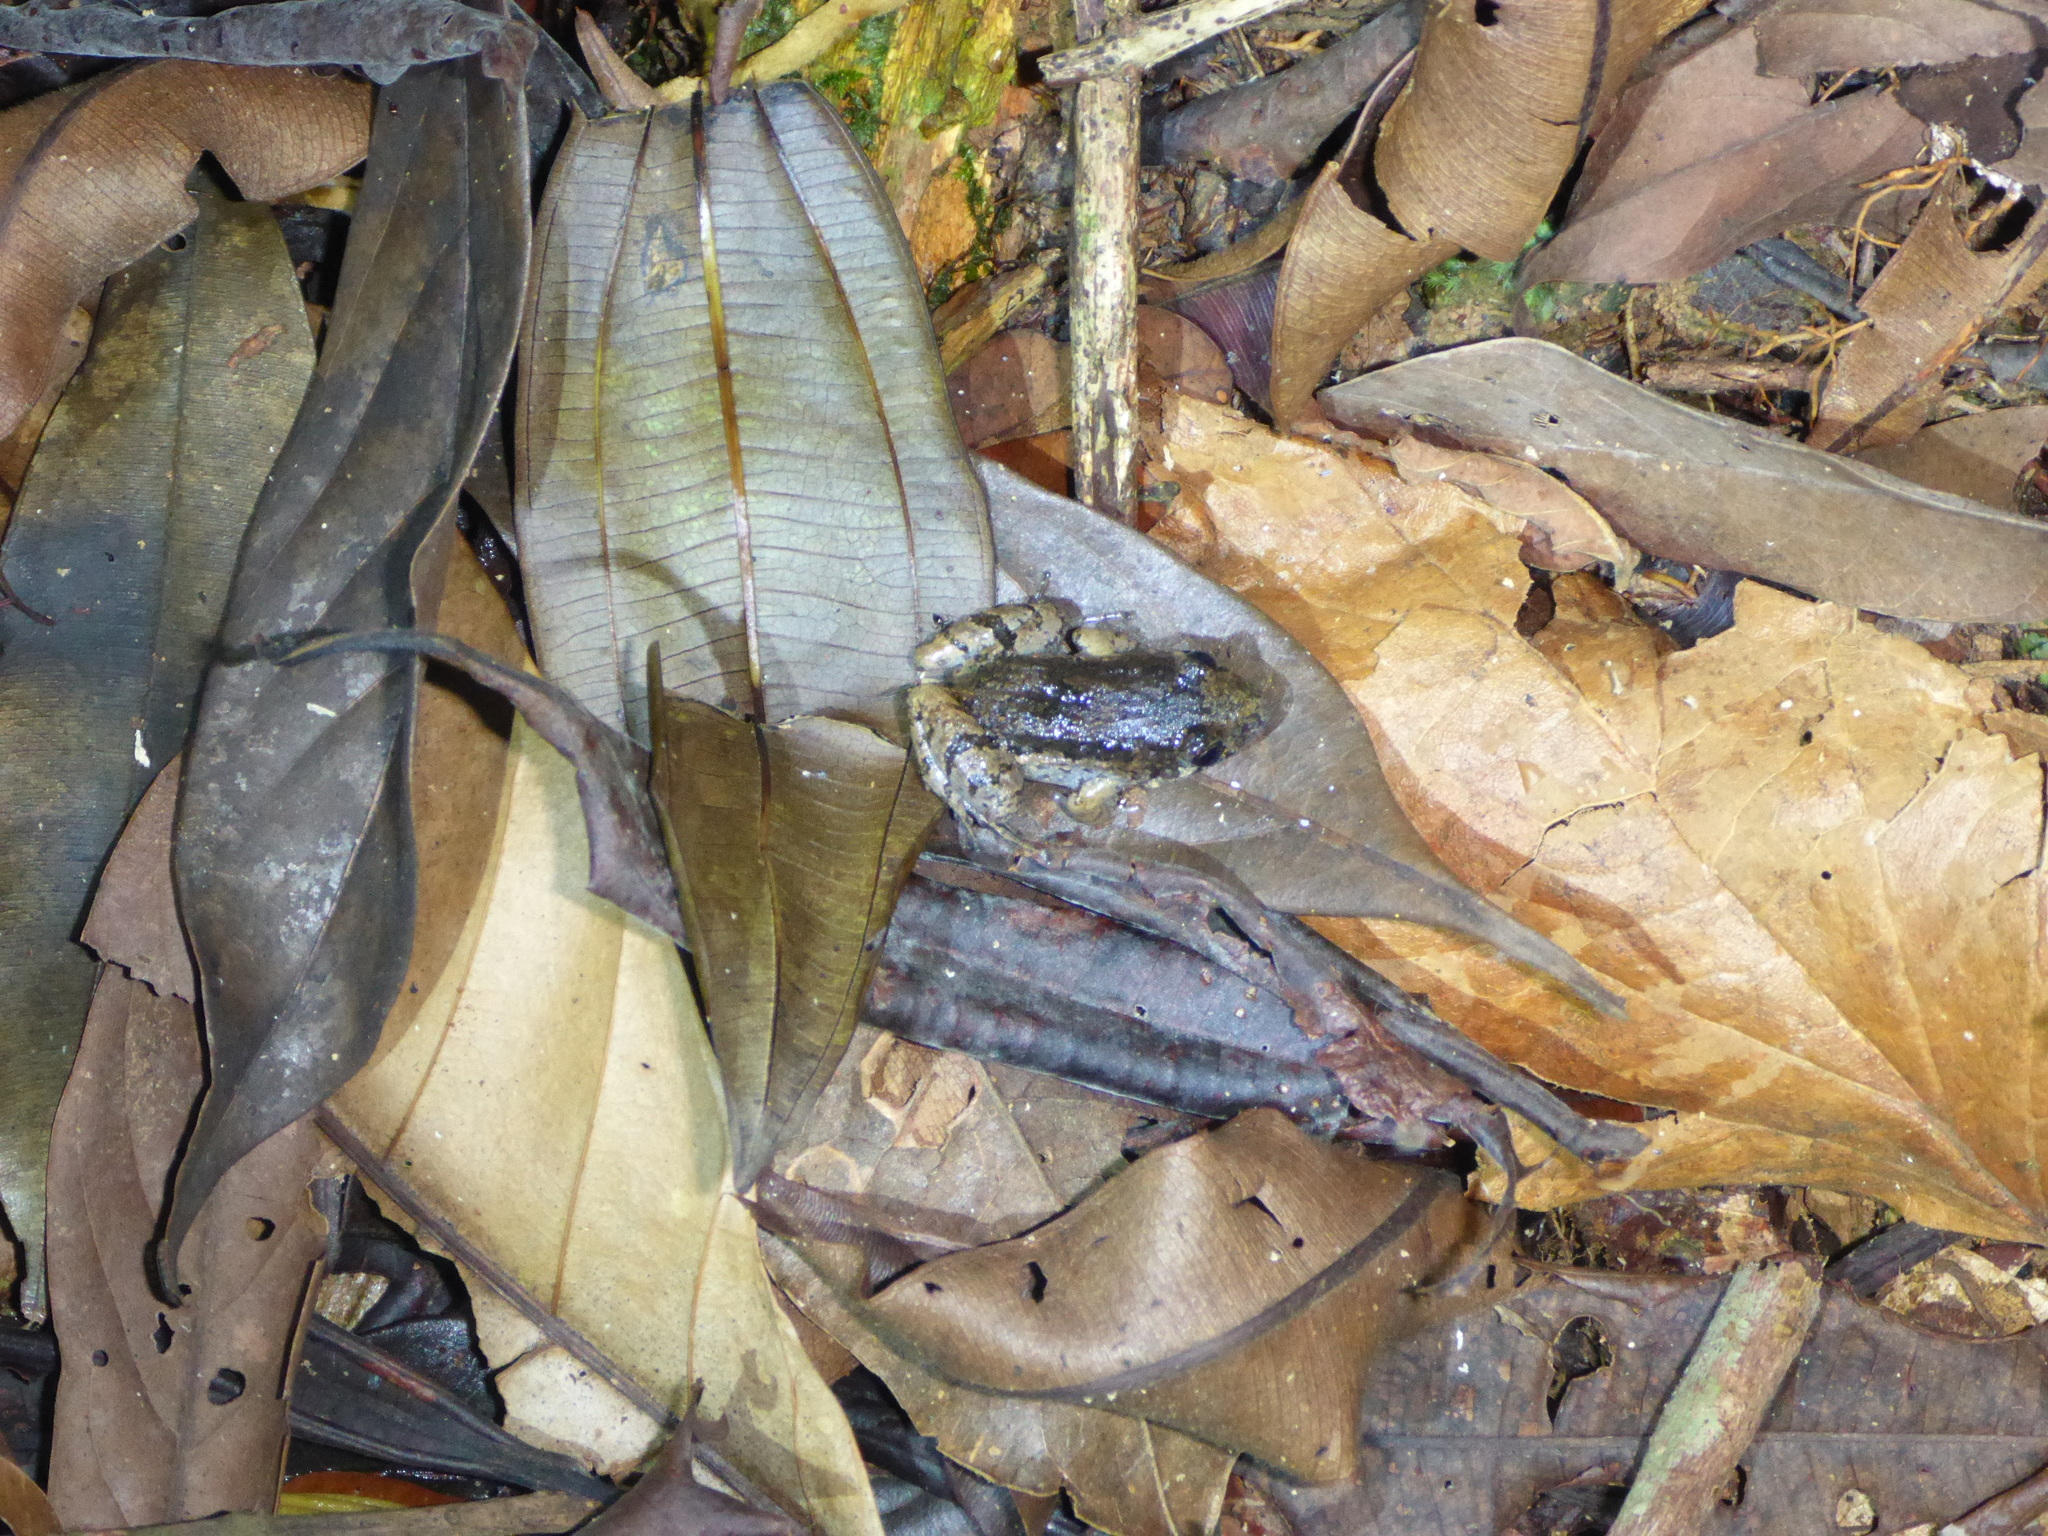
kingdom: Animalia
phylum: Chordata
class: Amphibia
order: Anura
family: Leptodactylidae
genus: Adenomera
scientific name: Adenomera andreae
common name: Lowland tropical bullfrog
